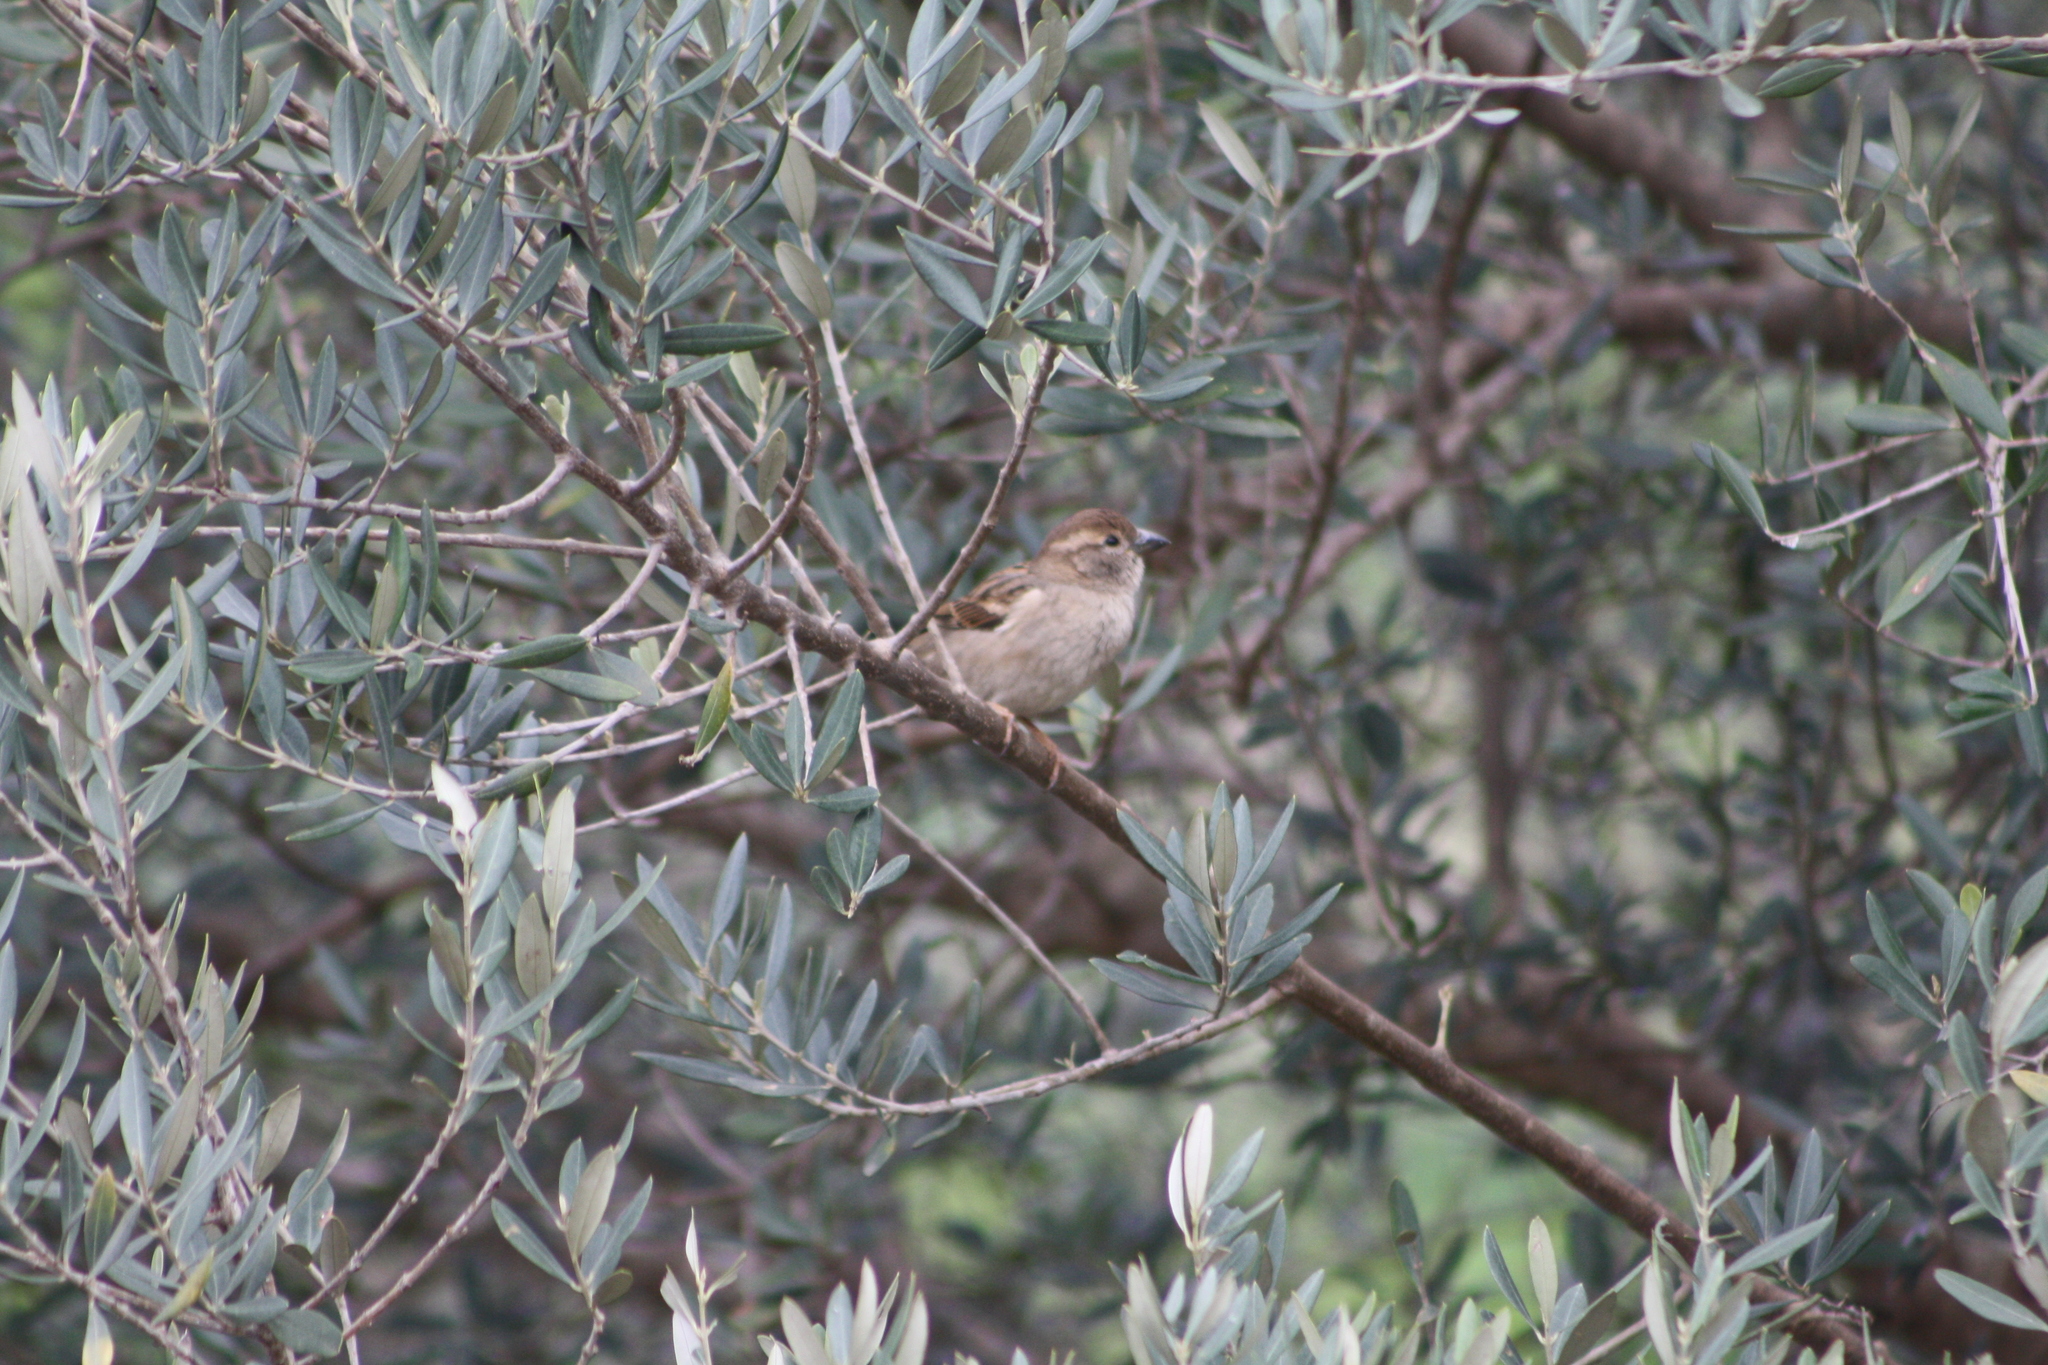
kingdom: Animalia
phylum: Chordata
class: Aves
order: Passeriformes
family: Passeridae
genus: Passer
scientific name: Passer domesticus
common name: House sparrow
